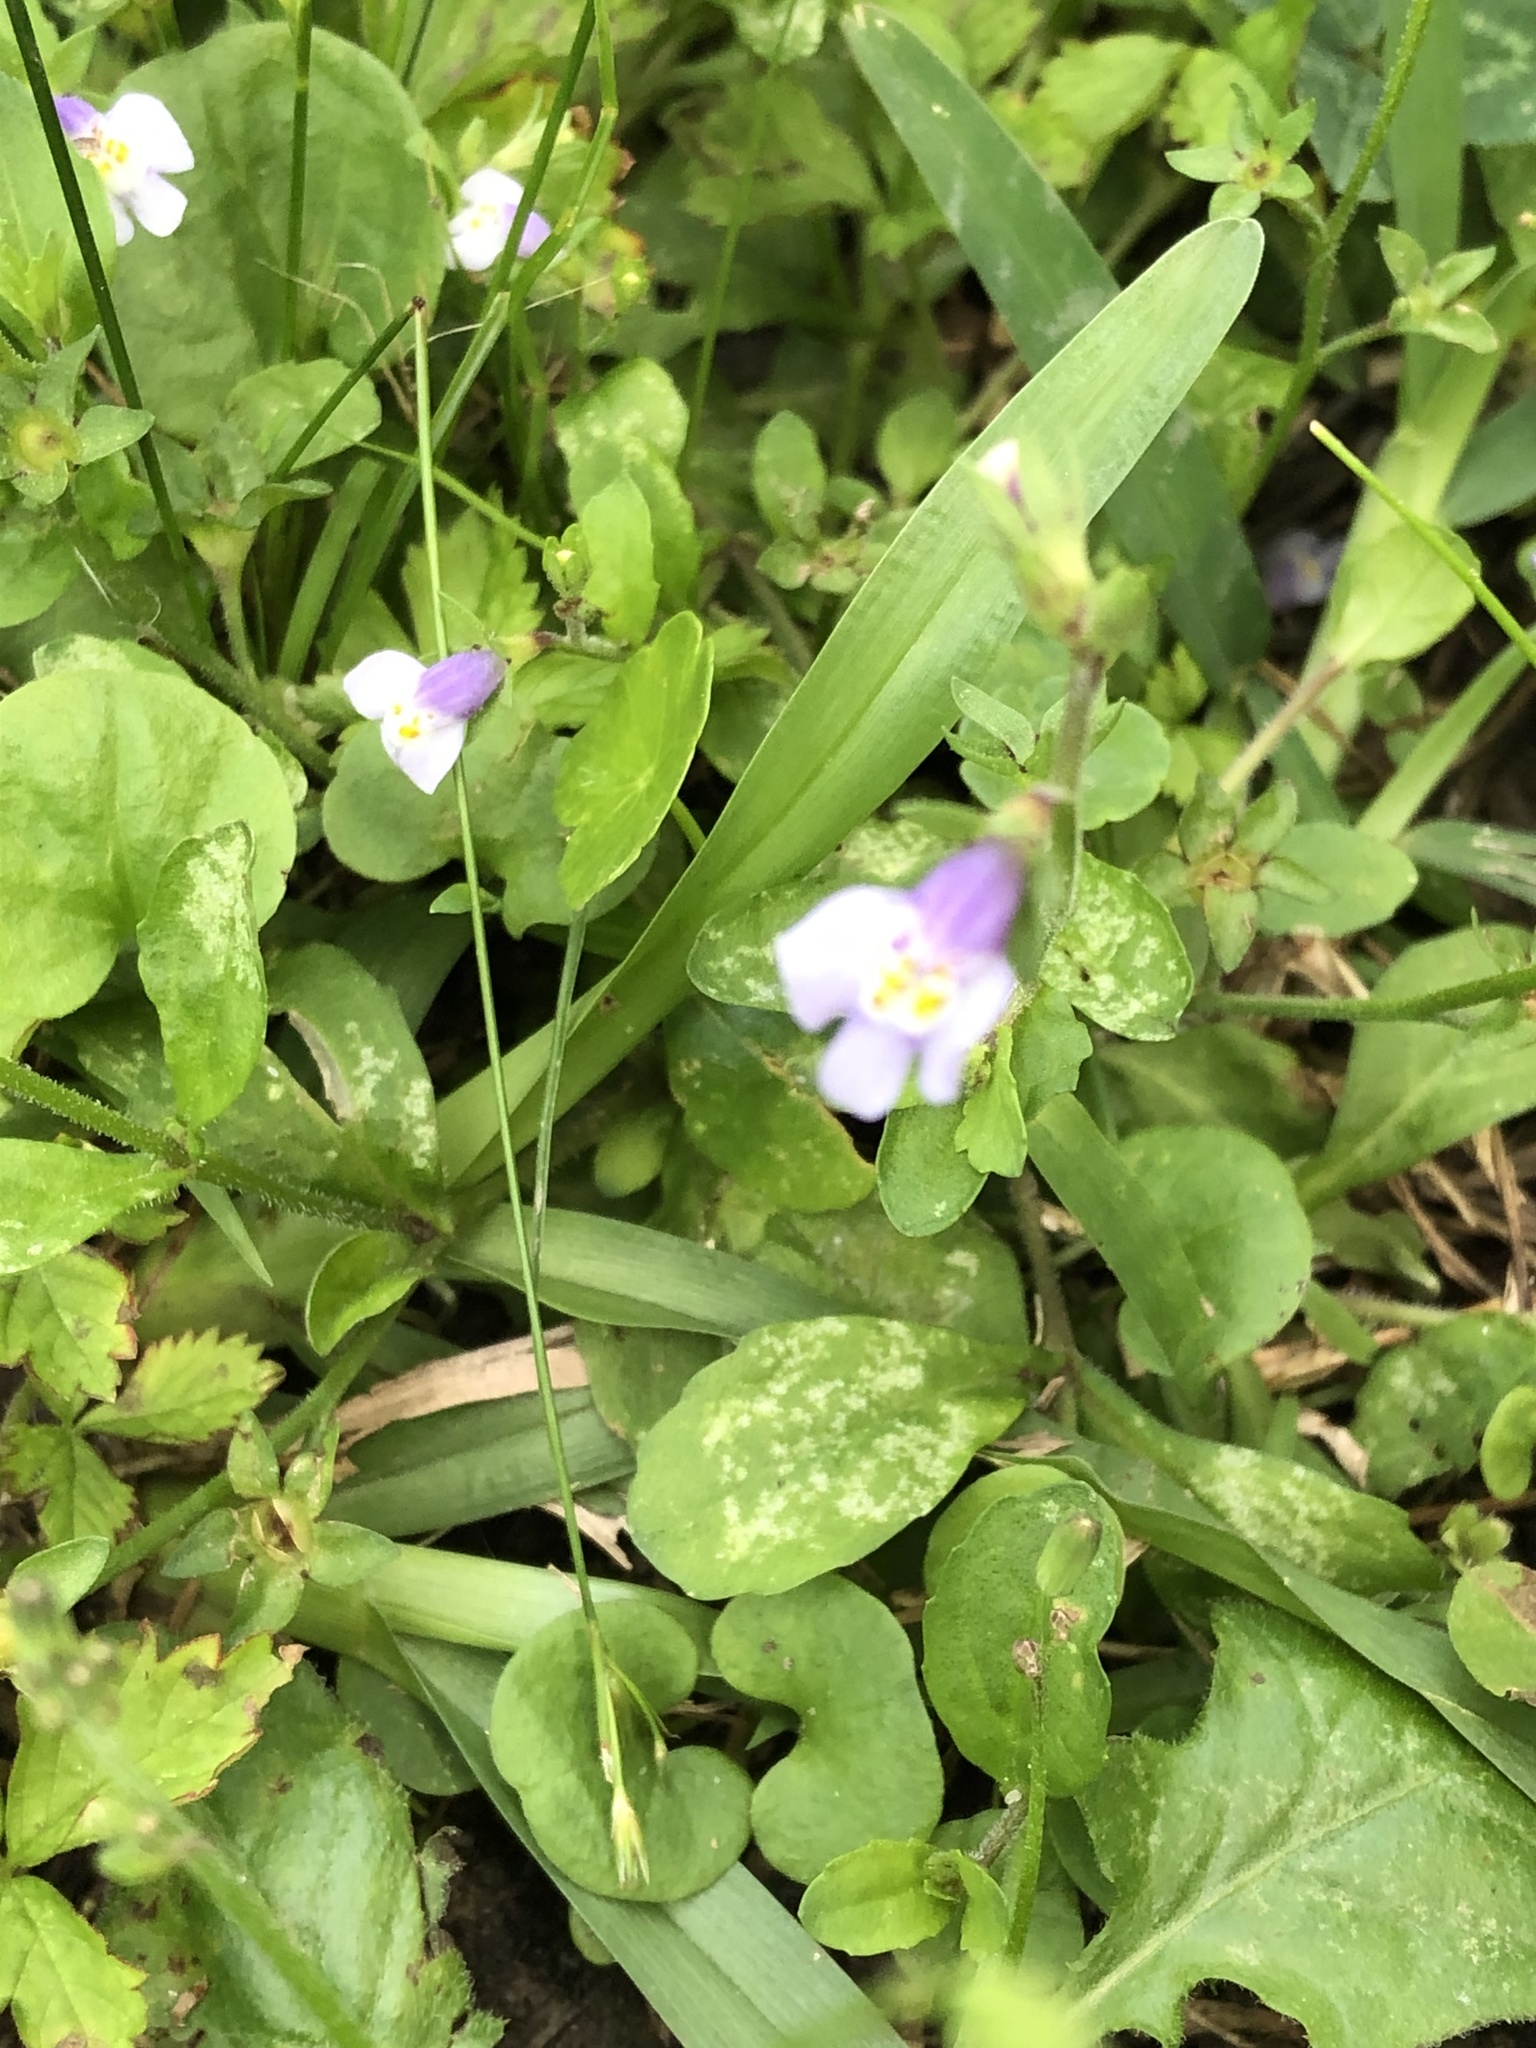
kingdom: Plantae
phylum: Tracheophyta
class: Magnoliopsida
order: Lamiales
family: Mazaceae
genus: Mazus
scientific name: Mazus pumilus
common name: Japanese mazus
